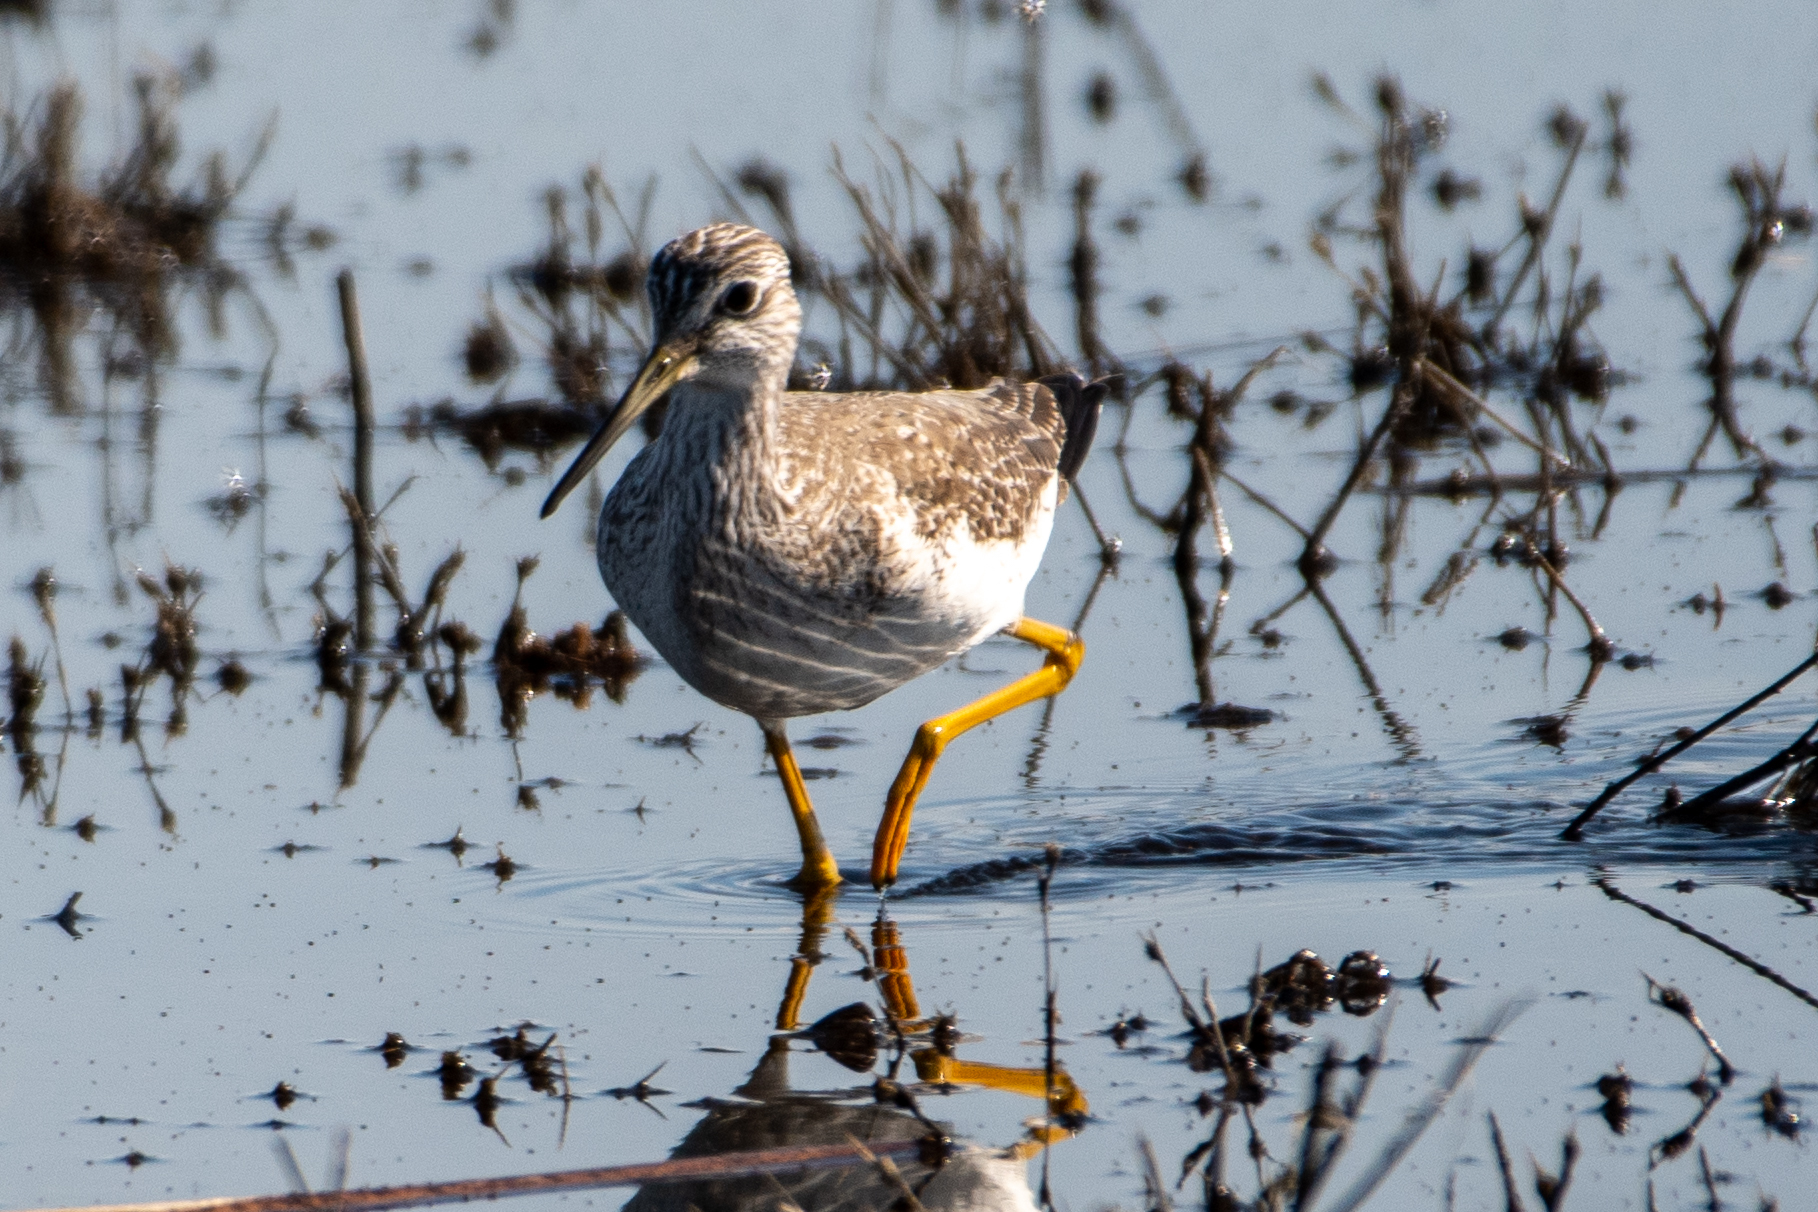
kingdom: Animalia
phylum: Chordata
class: Aves
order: Charadriiformes
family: Scolopacidae
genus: Tringa
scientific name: Tringa melanoleuca
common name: Greater yellowlegs
